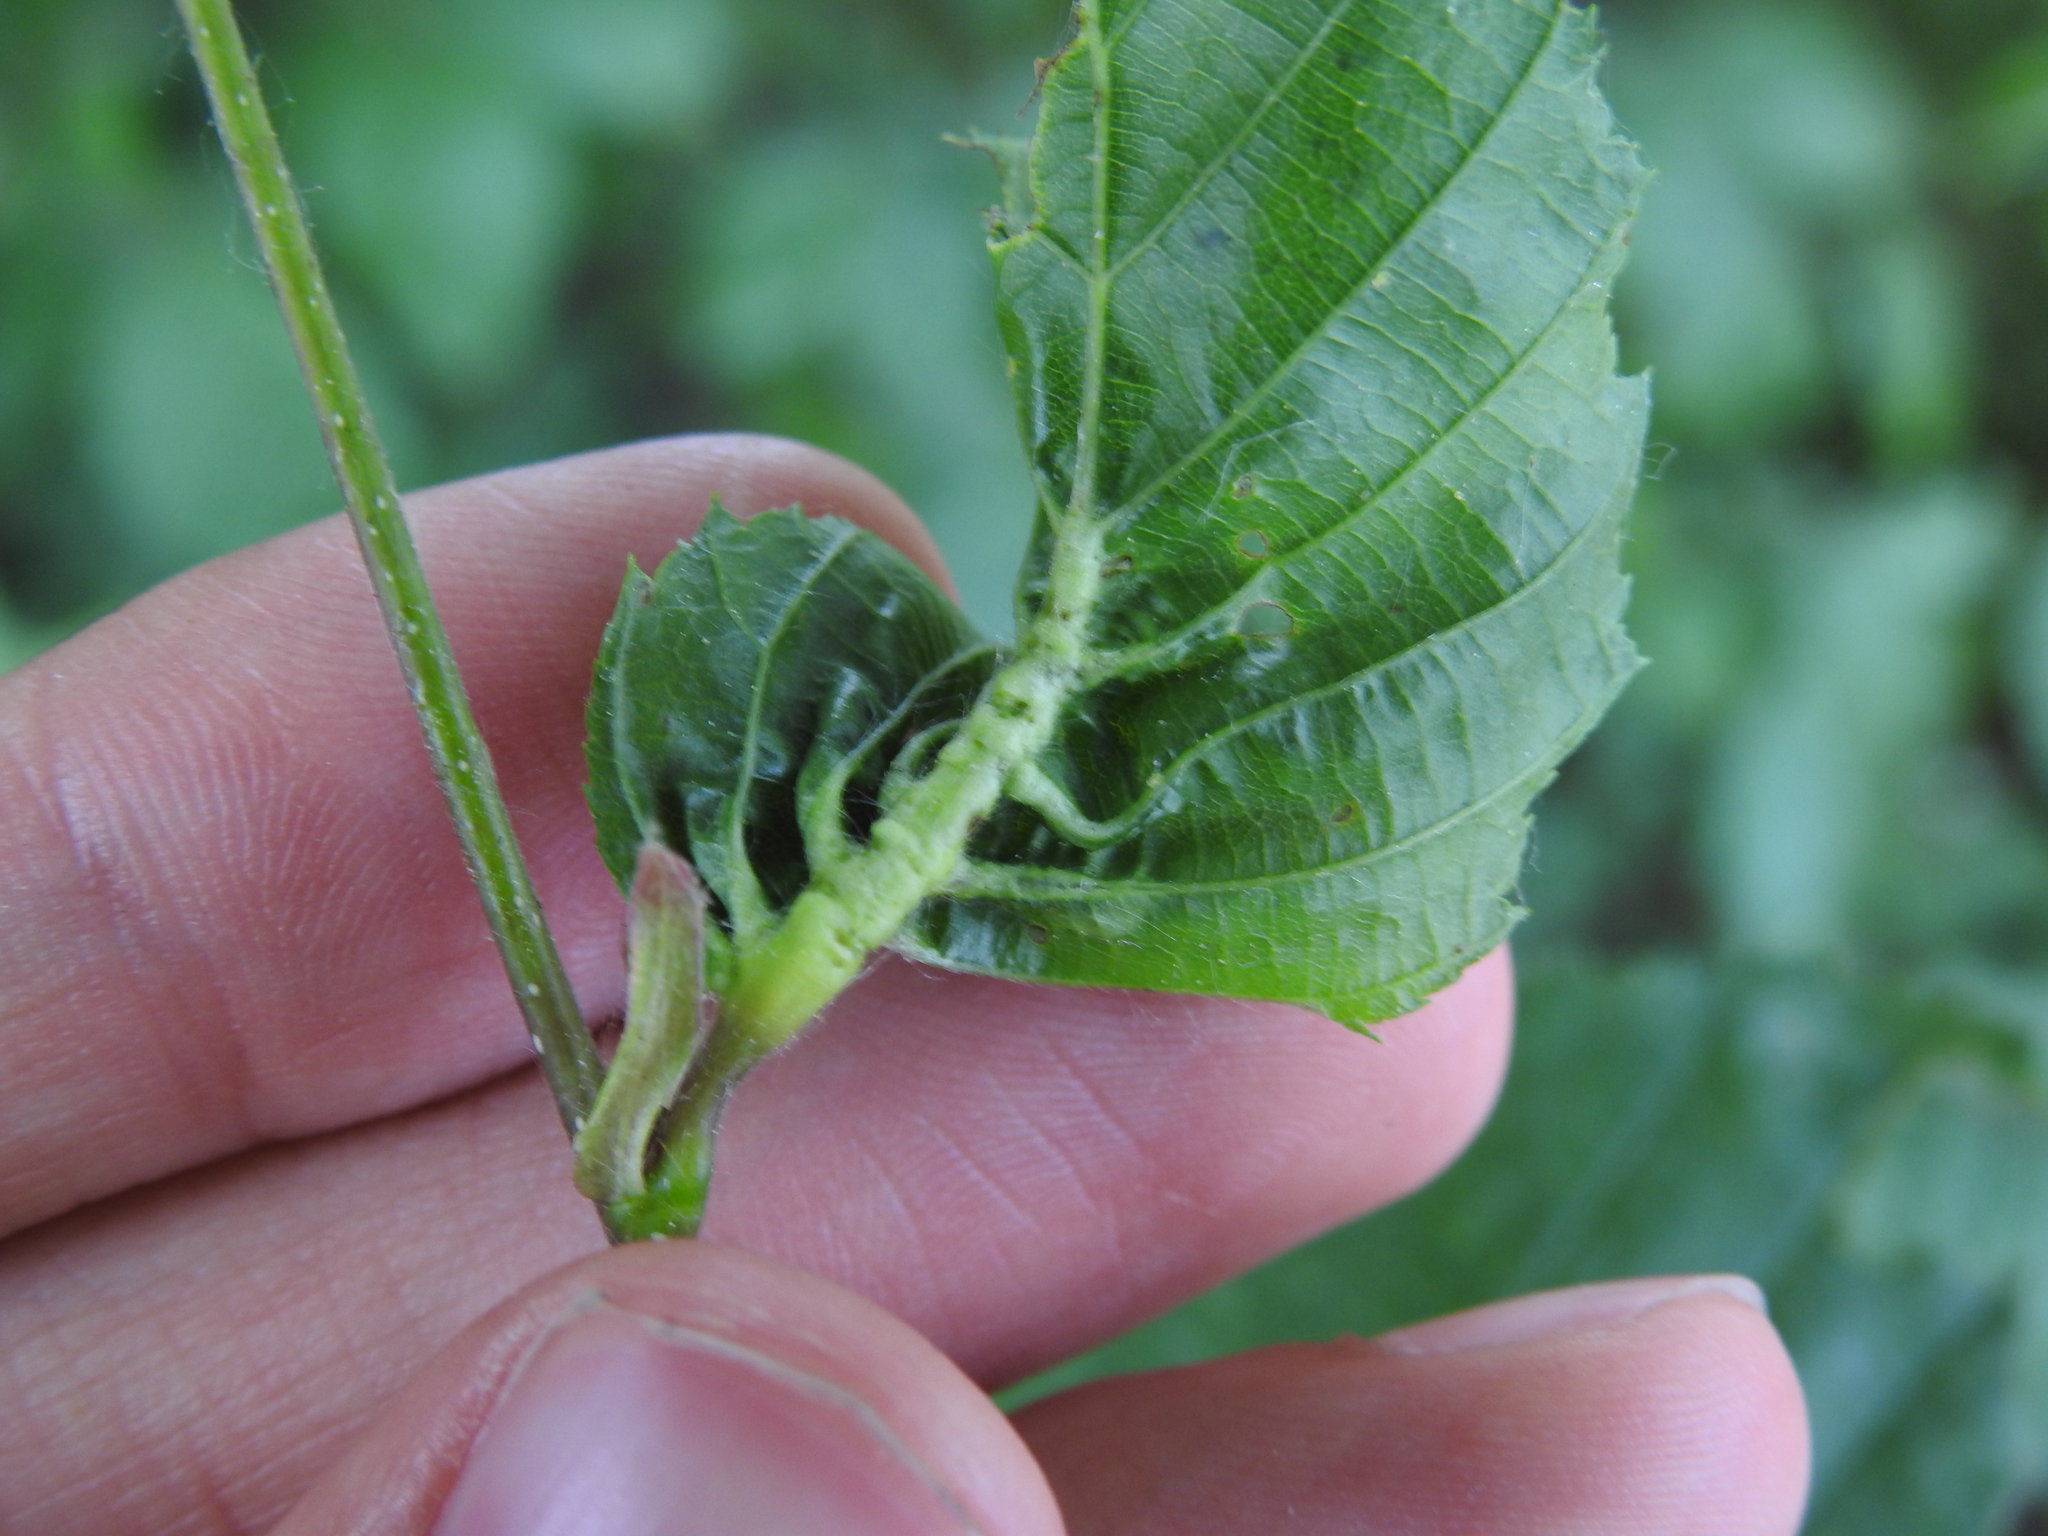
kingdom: Animalia
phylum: Arthropoda
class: Insecta
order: Diptera
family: Cecidomyiidae
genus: Zygiobia
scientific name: Zygiobia carpini
